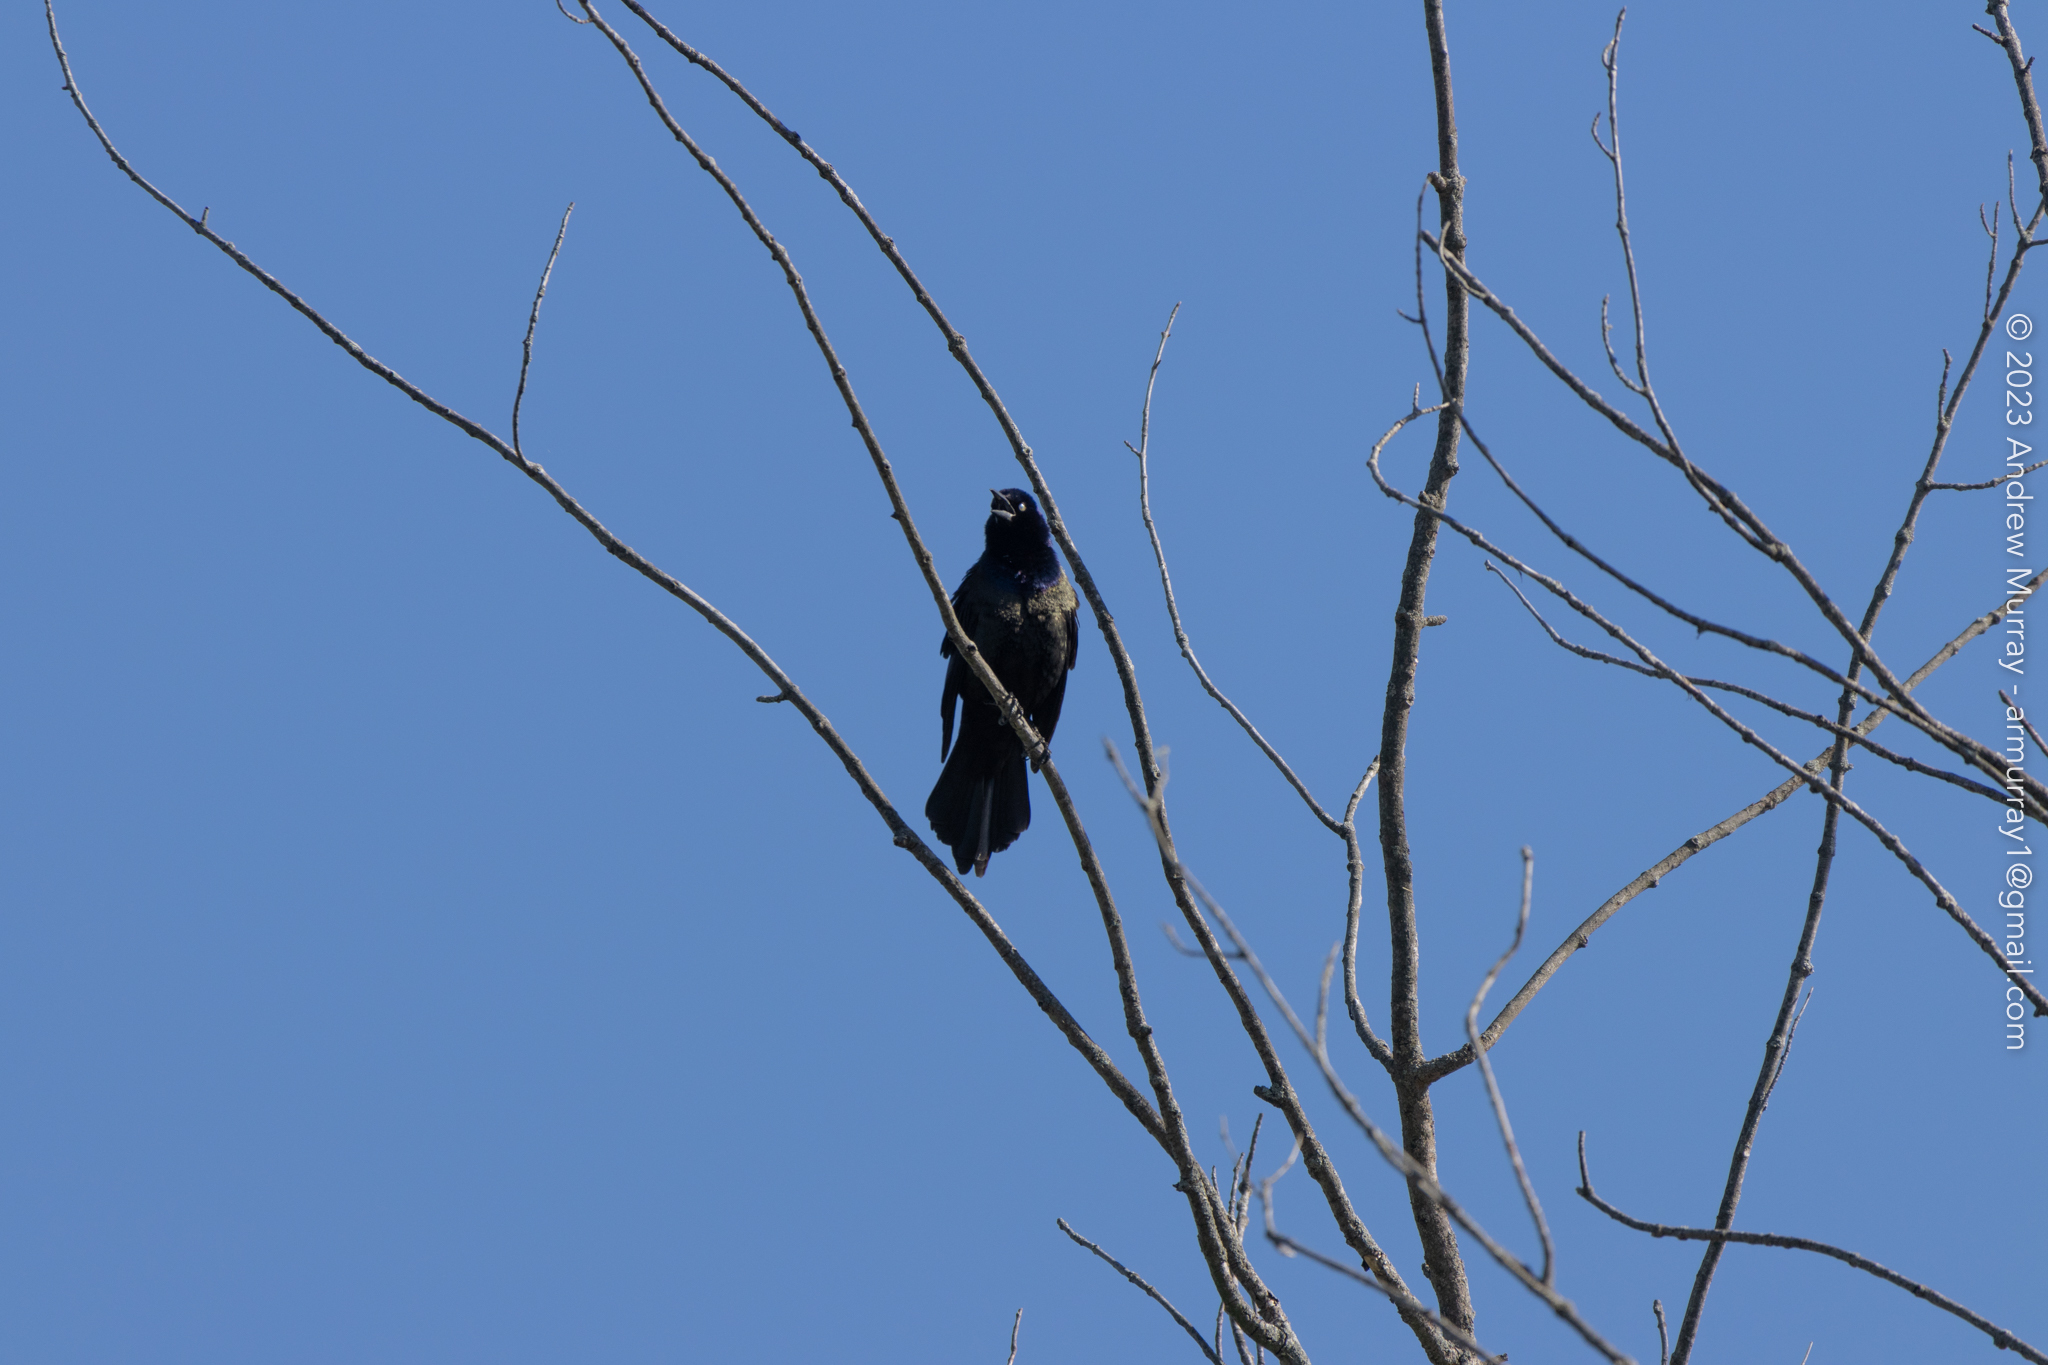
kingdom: Animalia
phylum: Chordata
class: Aves
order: Passeriformes
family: Icteridae
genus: Quiscalus
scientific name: Quiscalus quiscula
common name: Common grackle
